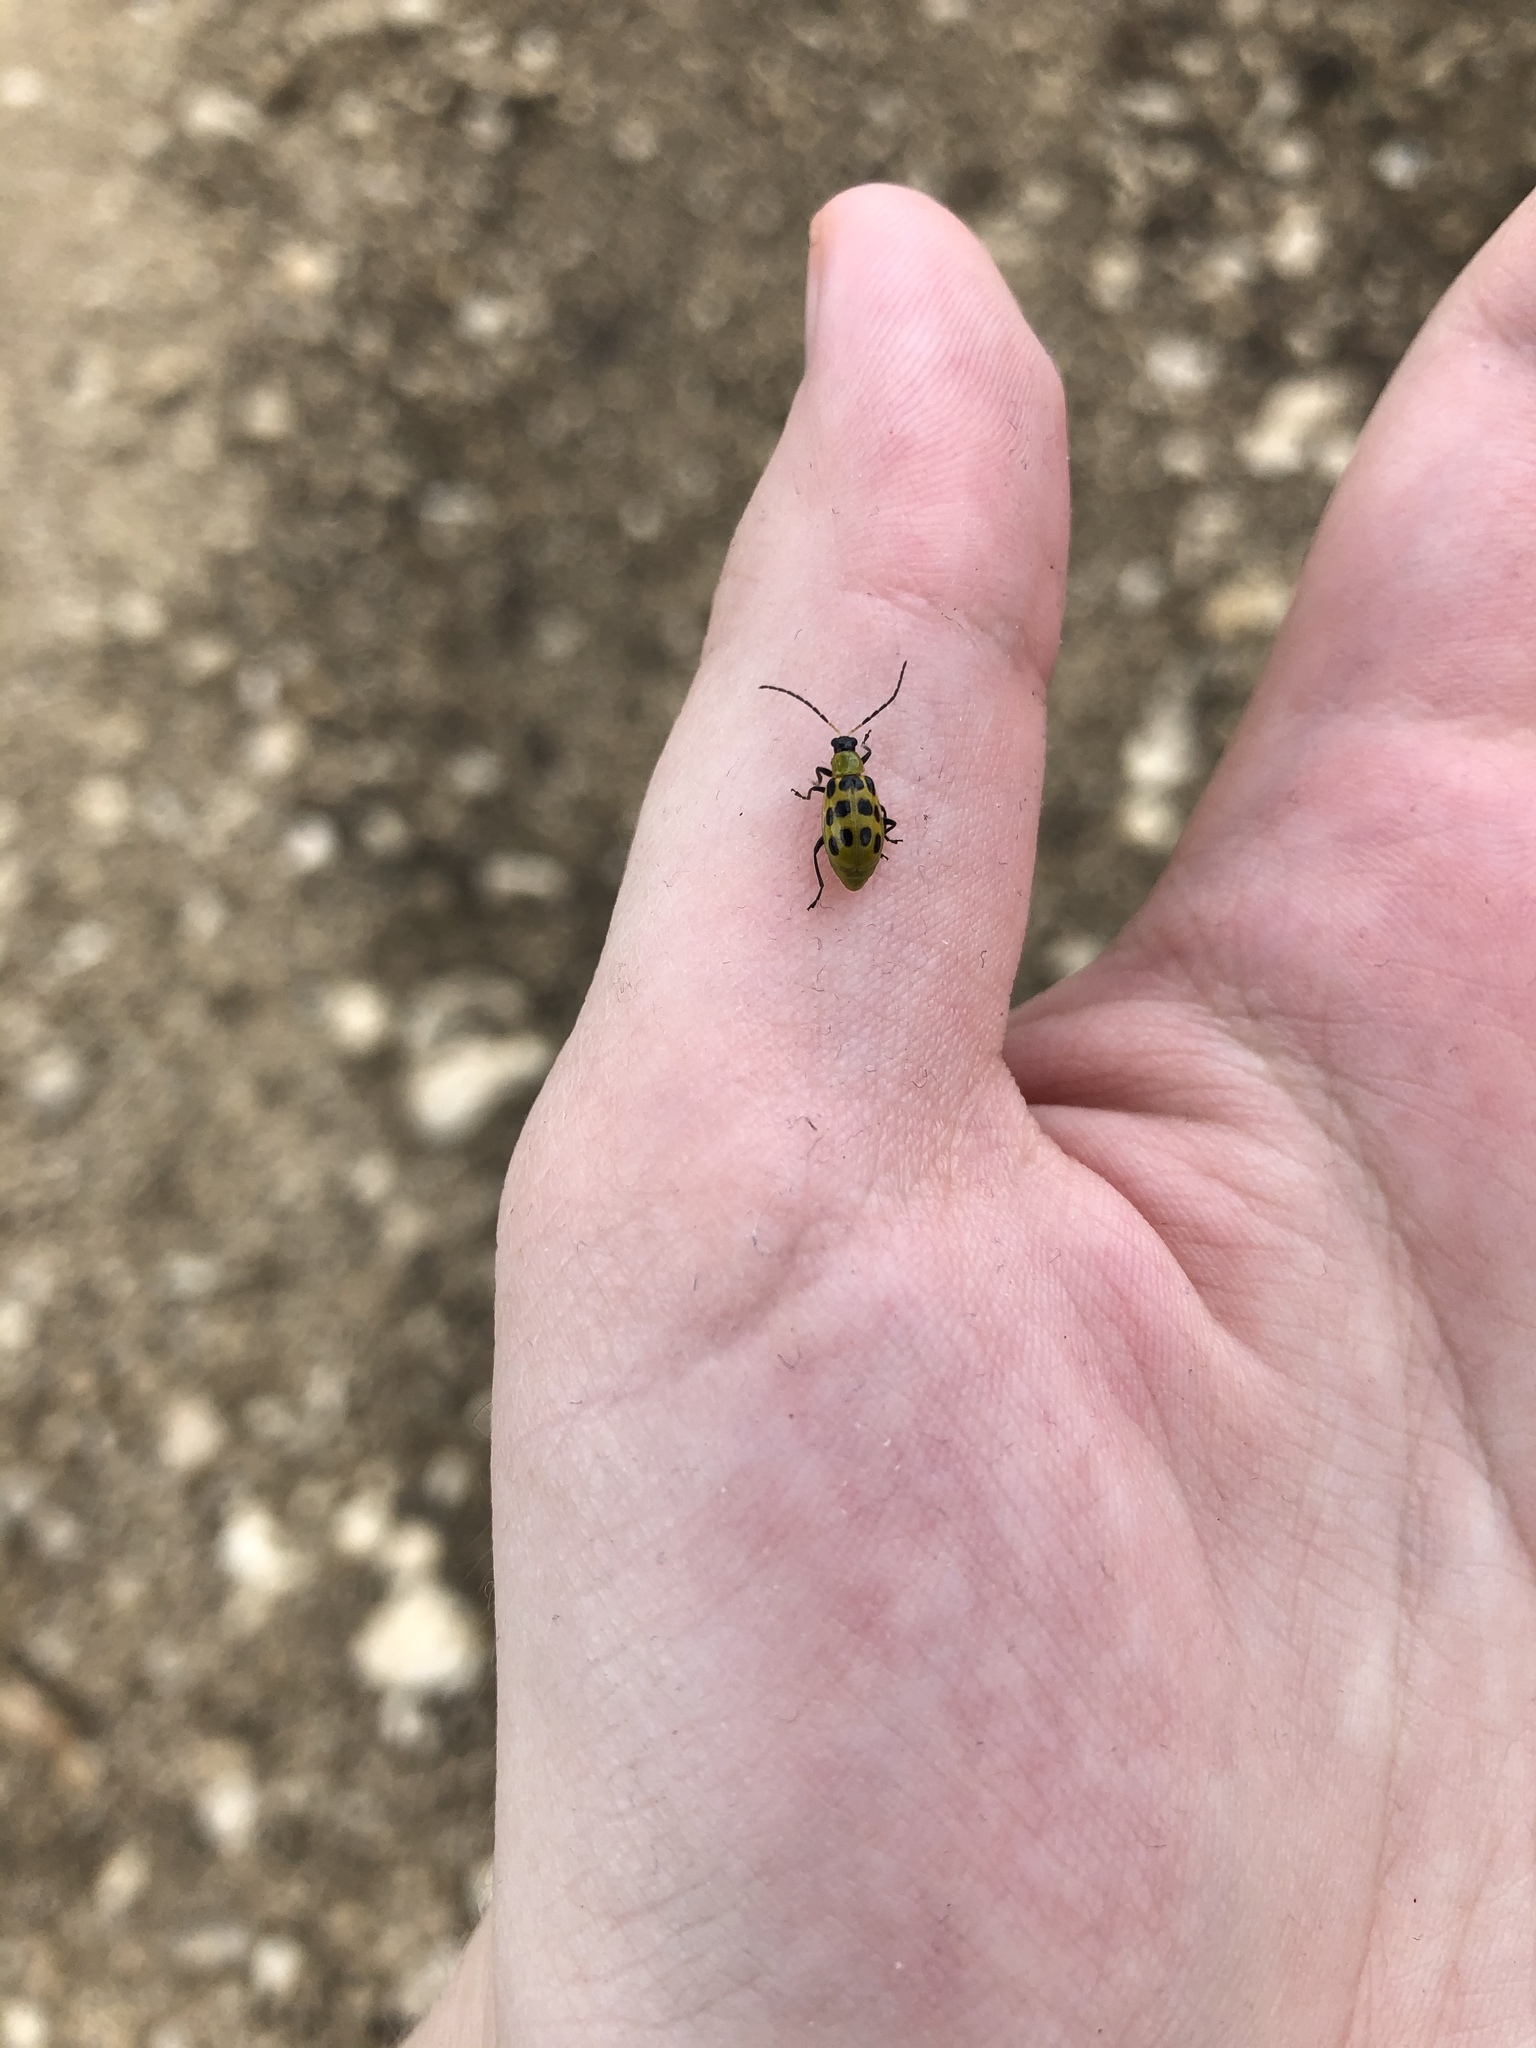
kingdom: Animalia
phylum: Arthropoda
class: Insecta
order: Coleoptera
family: Chrysomelidae
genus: Diabrotica
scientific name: Diabrotica undecimpunctata
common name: Spotted cucumber beetle
